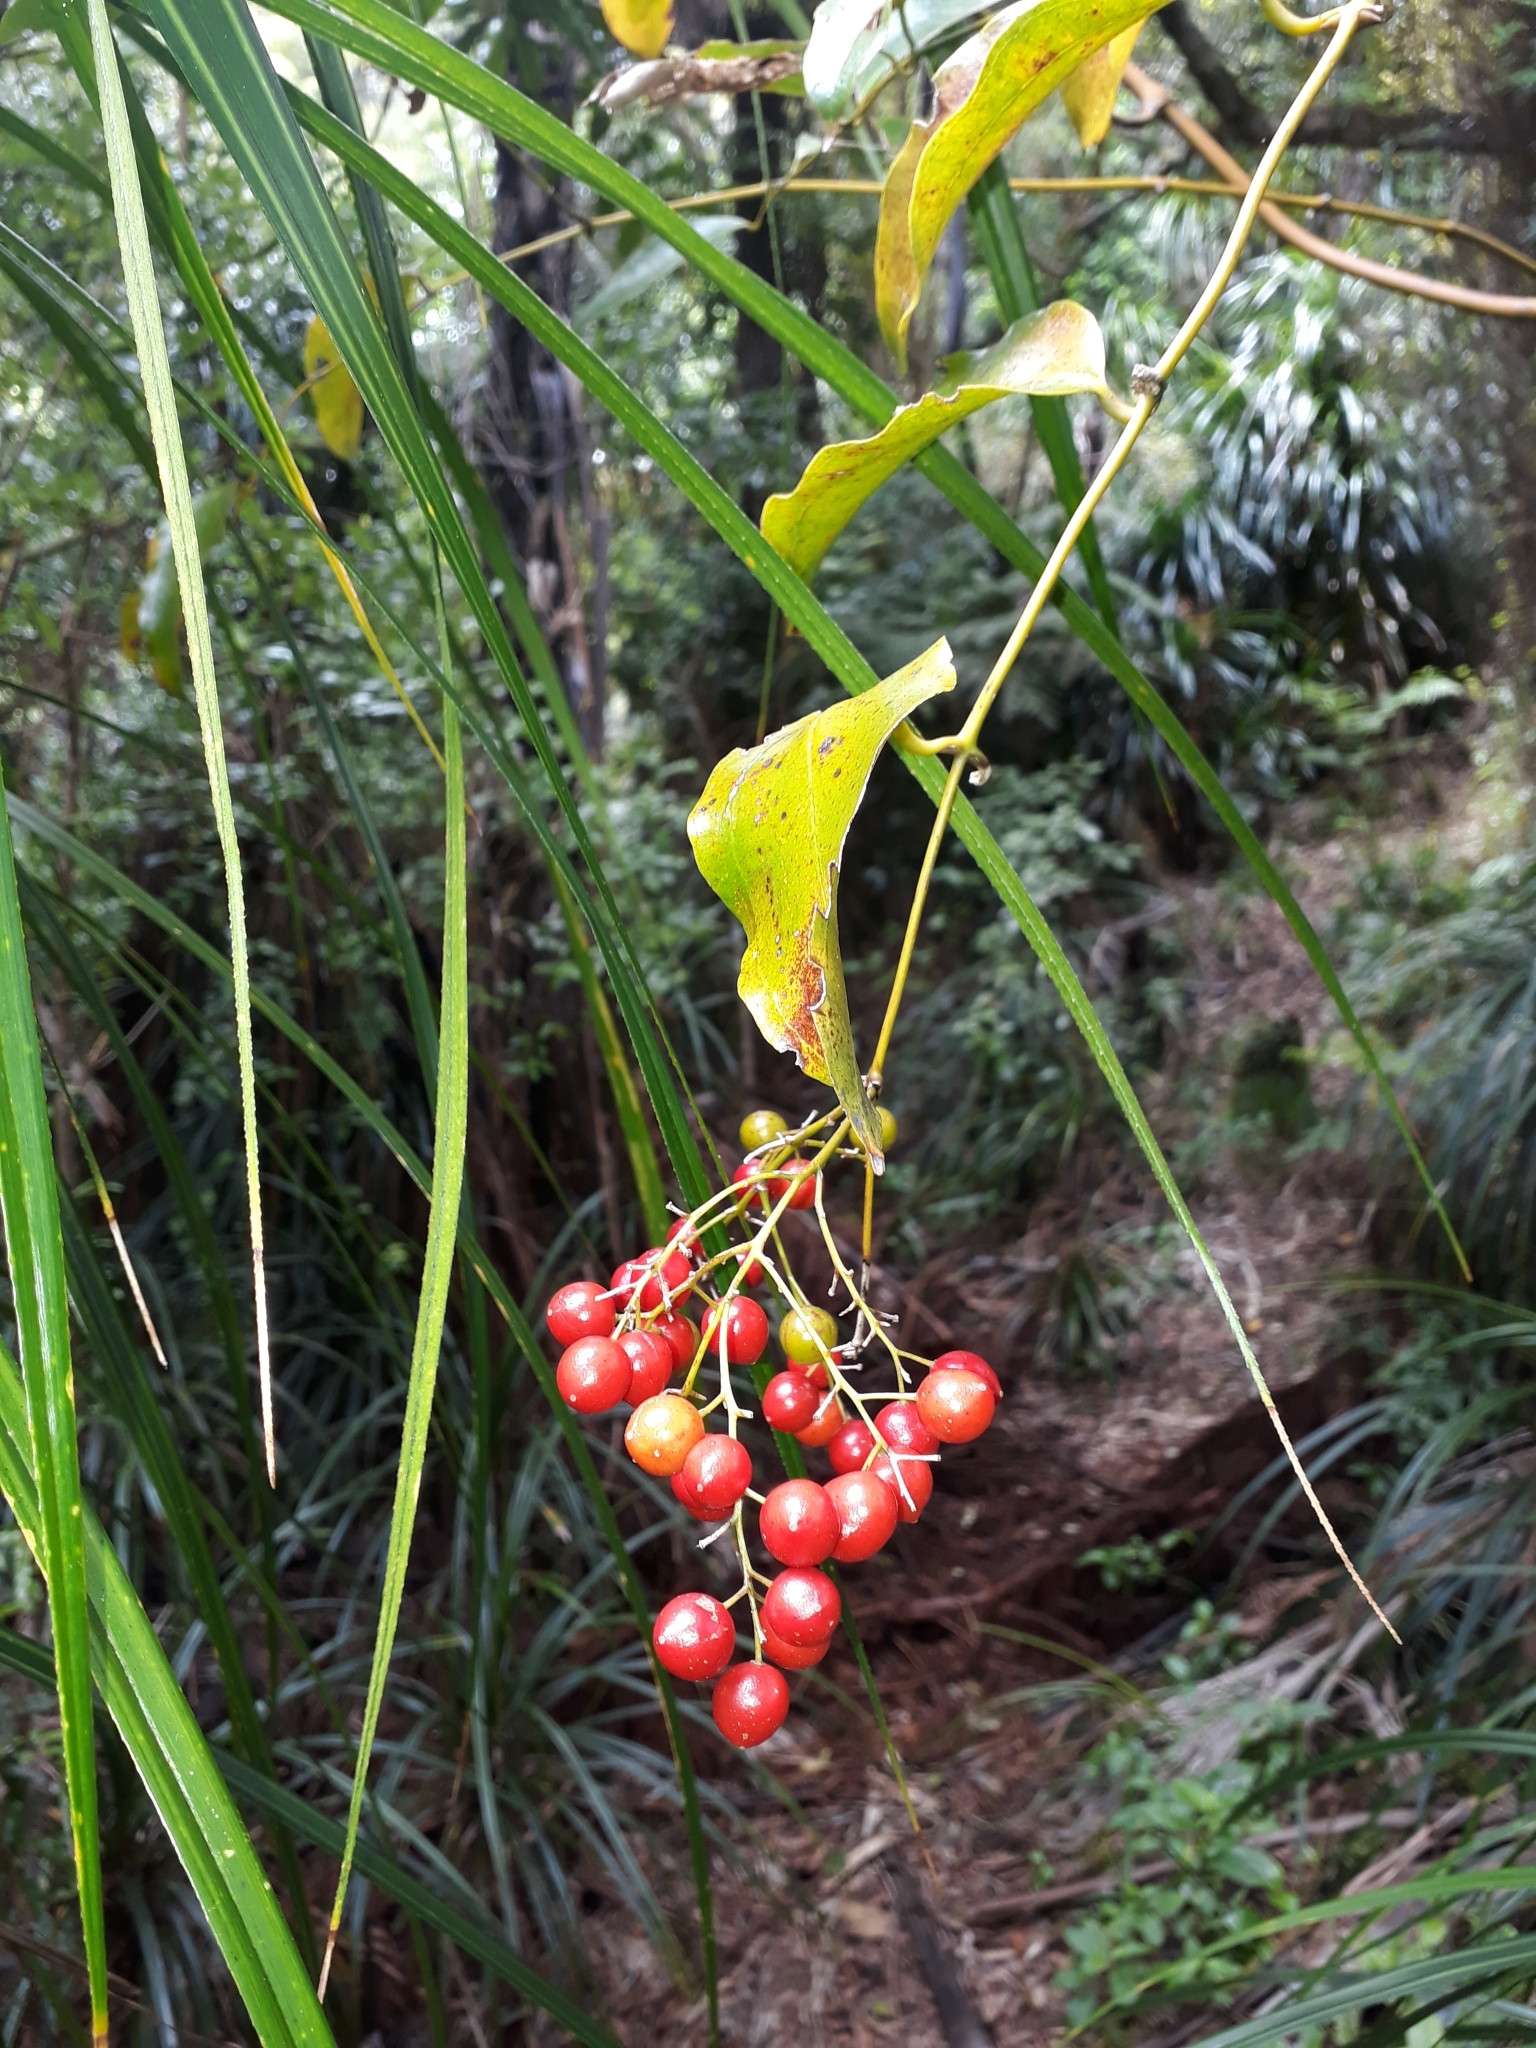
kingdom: Plantae
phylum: Tracheophyta
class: Liliopsida
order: Liliales
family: Ripogonaceae
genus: Ripogonum
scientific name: Ripogonum scandens
